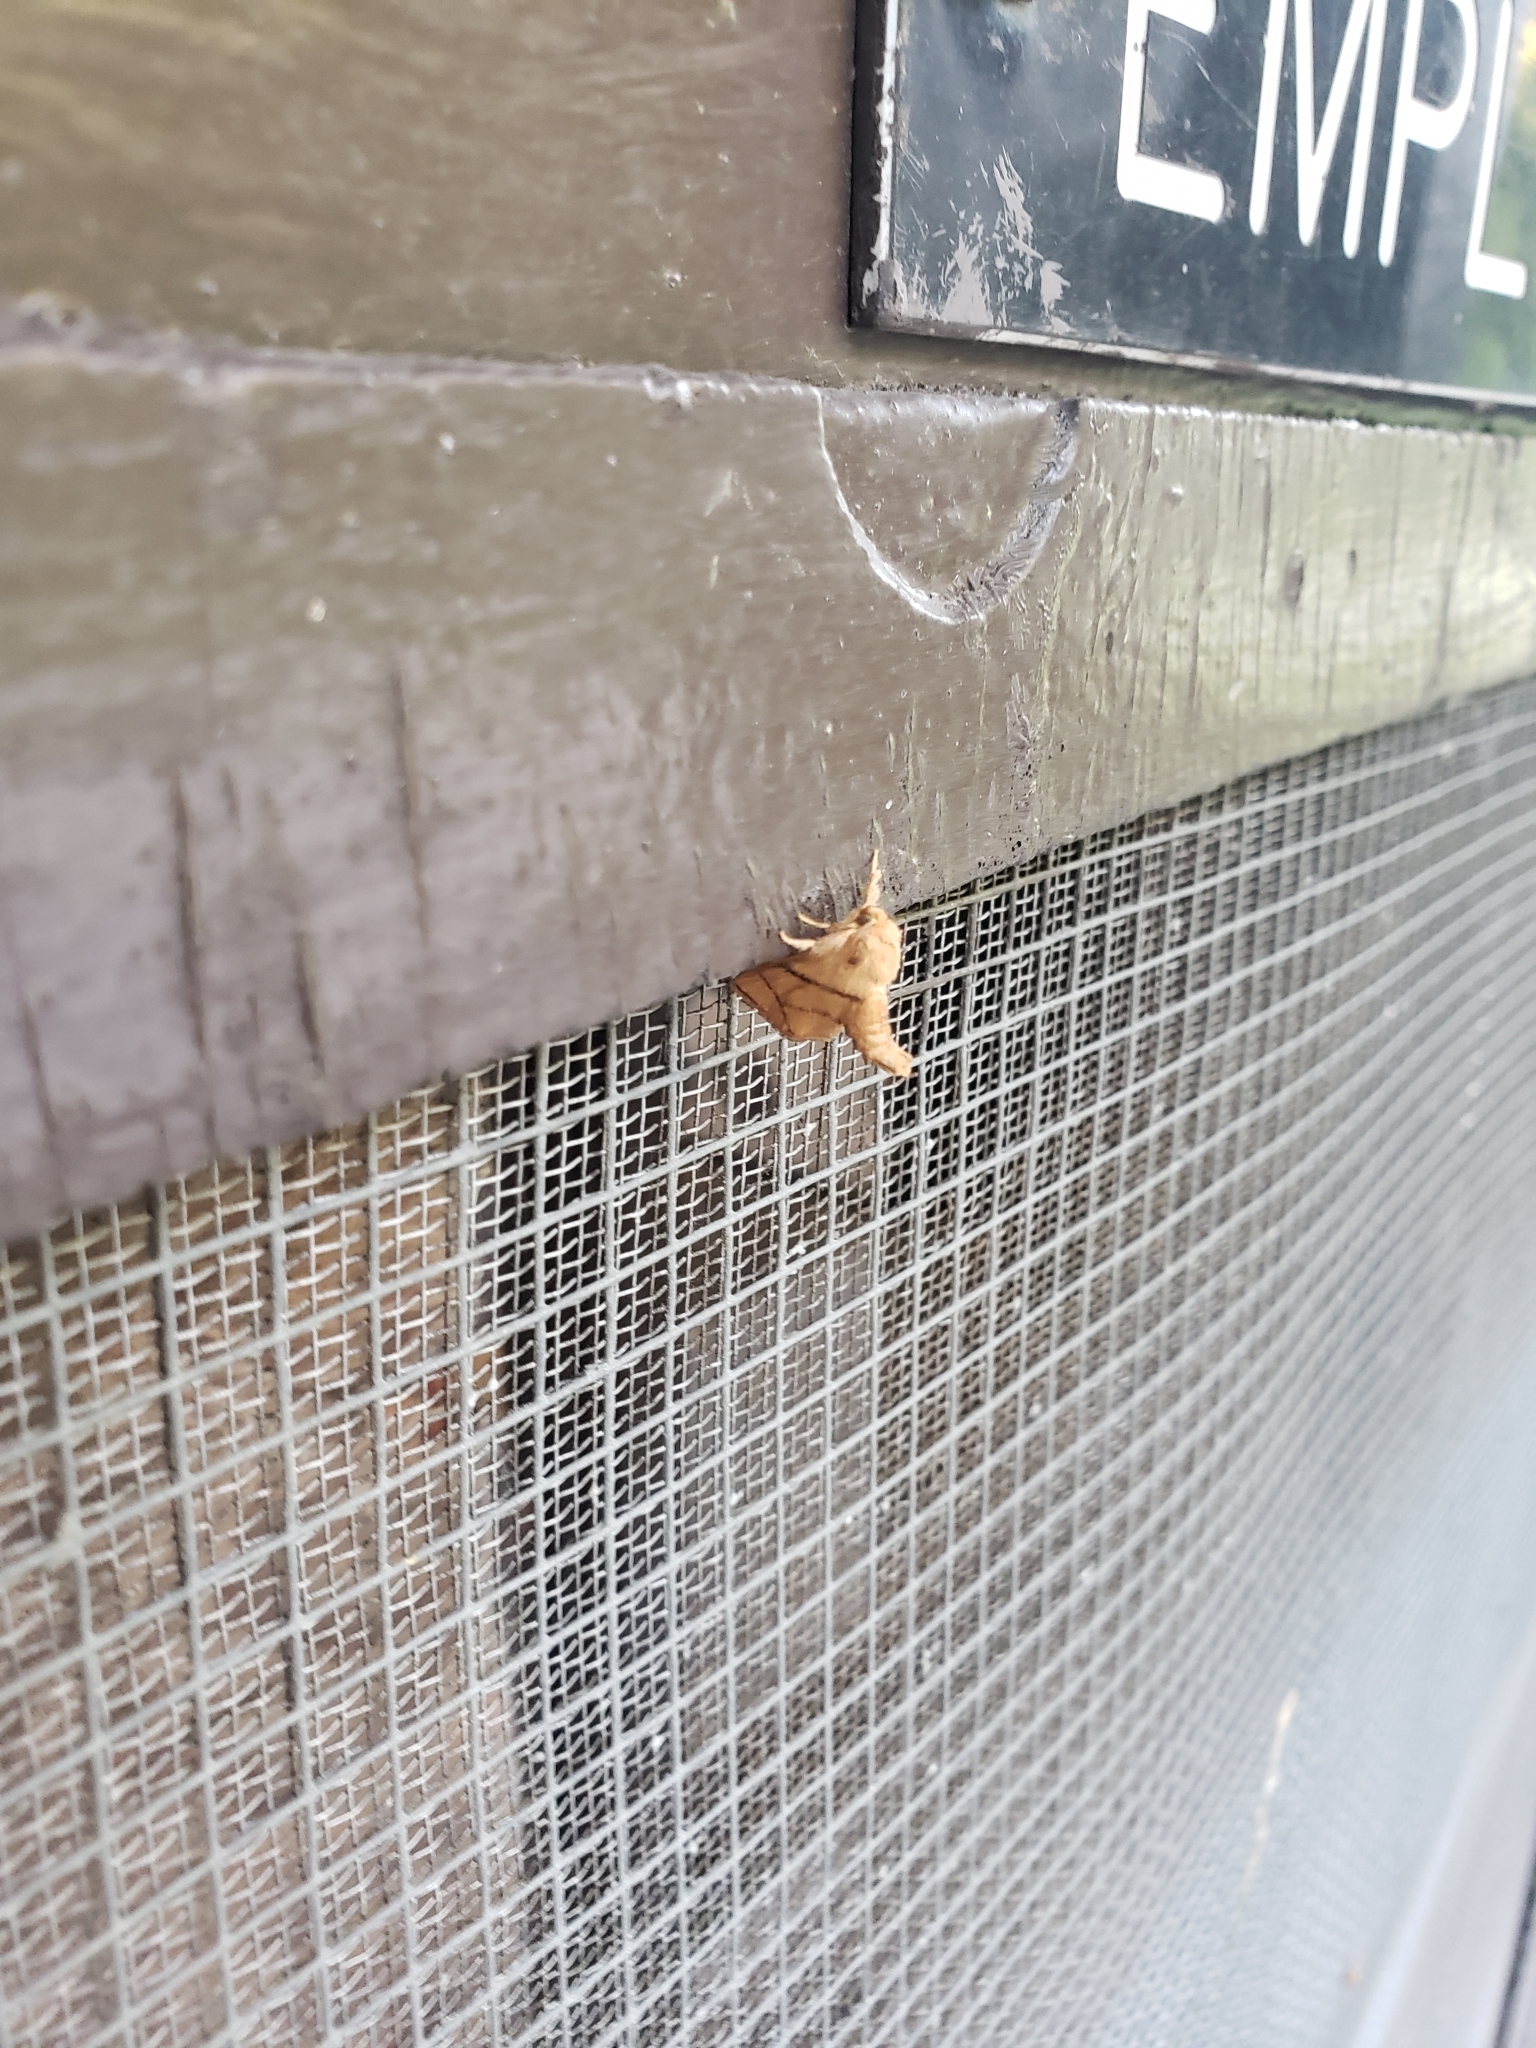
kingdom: Animalia
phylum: Arthropoda
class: Insecta
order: Lepidoptera
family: Limacodidae
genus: Apoda
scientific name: Apoda y-inversa
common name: Yellow-collared slug moth
